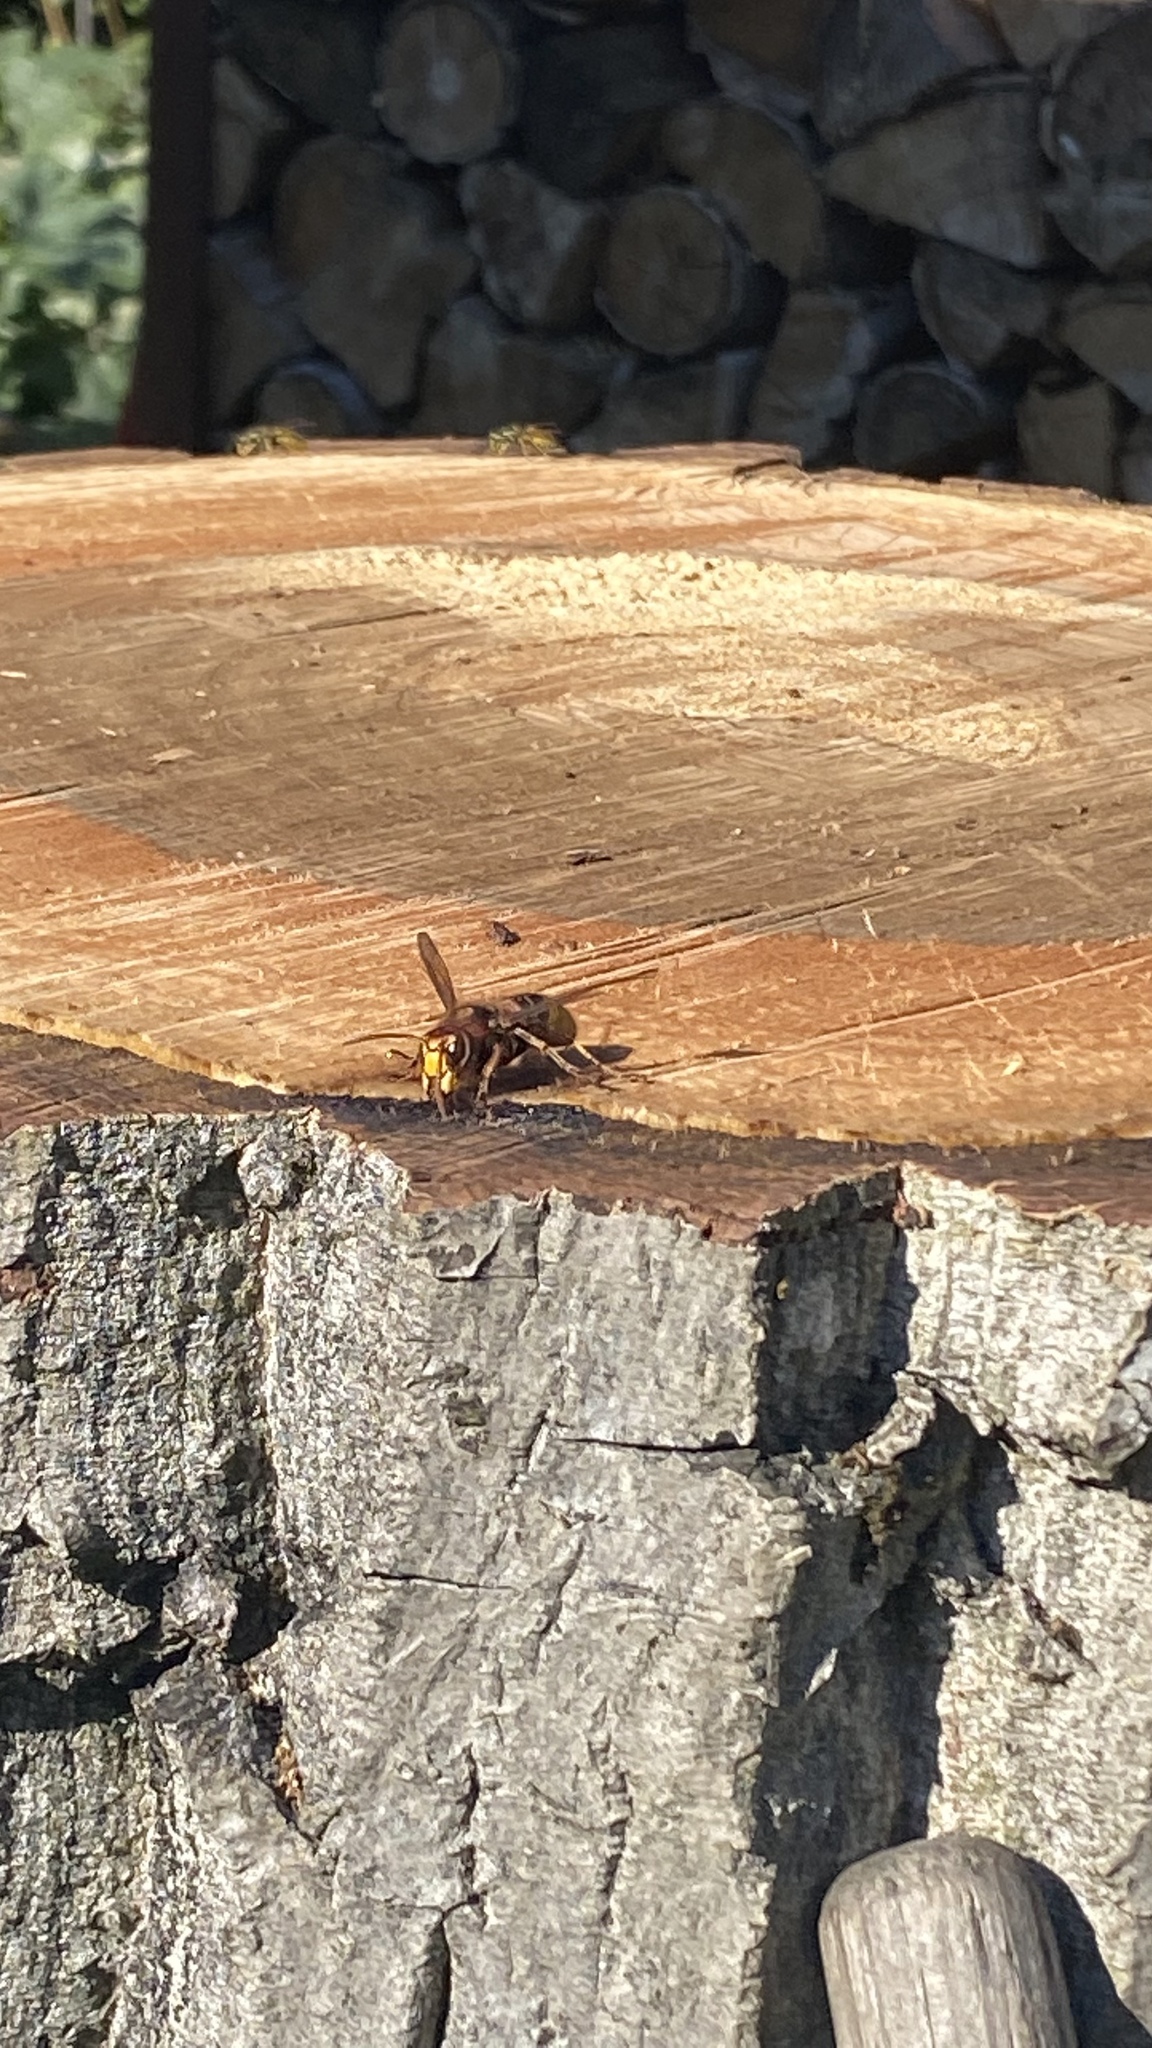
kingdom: Animalia
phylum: Arthropoda
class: Insecta
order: Hymenoptera
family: Vespidae
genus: Vespa
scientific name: Vespa crabro
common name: Hornet
